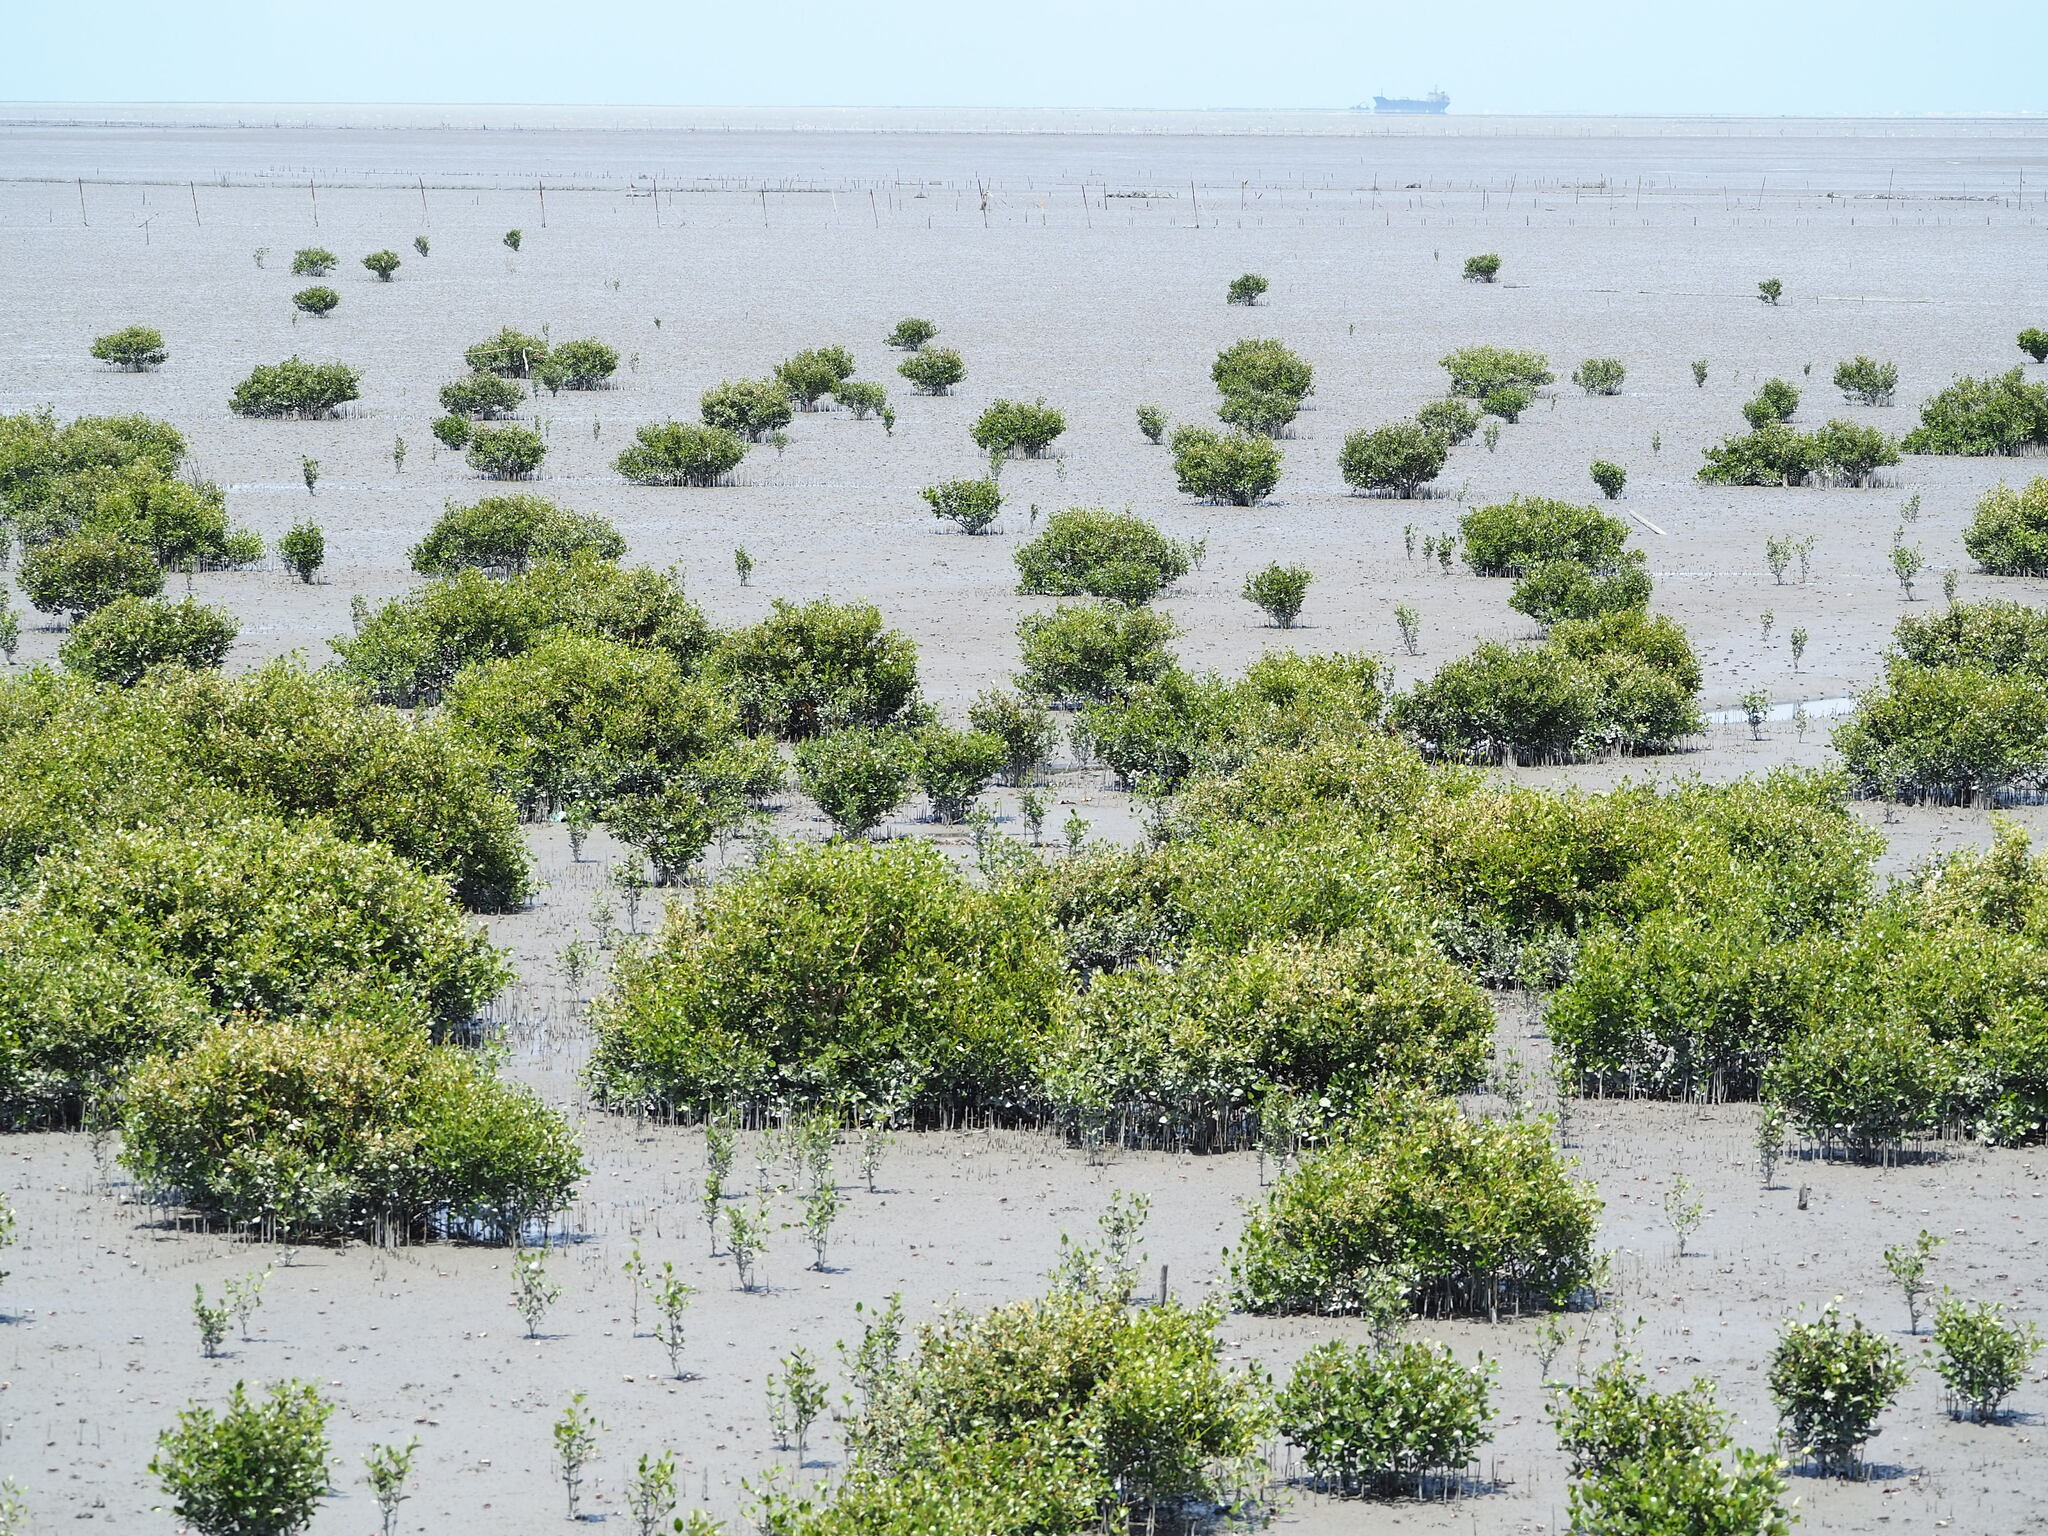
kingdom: Plantae
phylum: Tracheophyta
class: Magnoliopsida
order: Lamiales
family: Acanthaceae
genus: Avicennia
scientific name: Avicennia marina
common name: Gray mangrove
